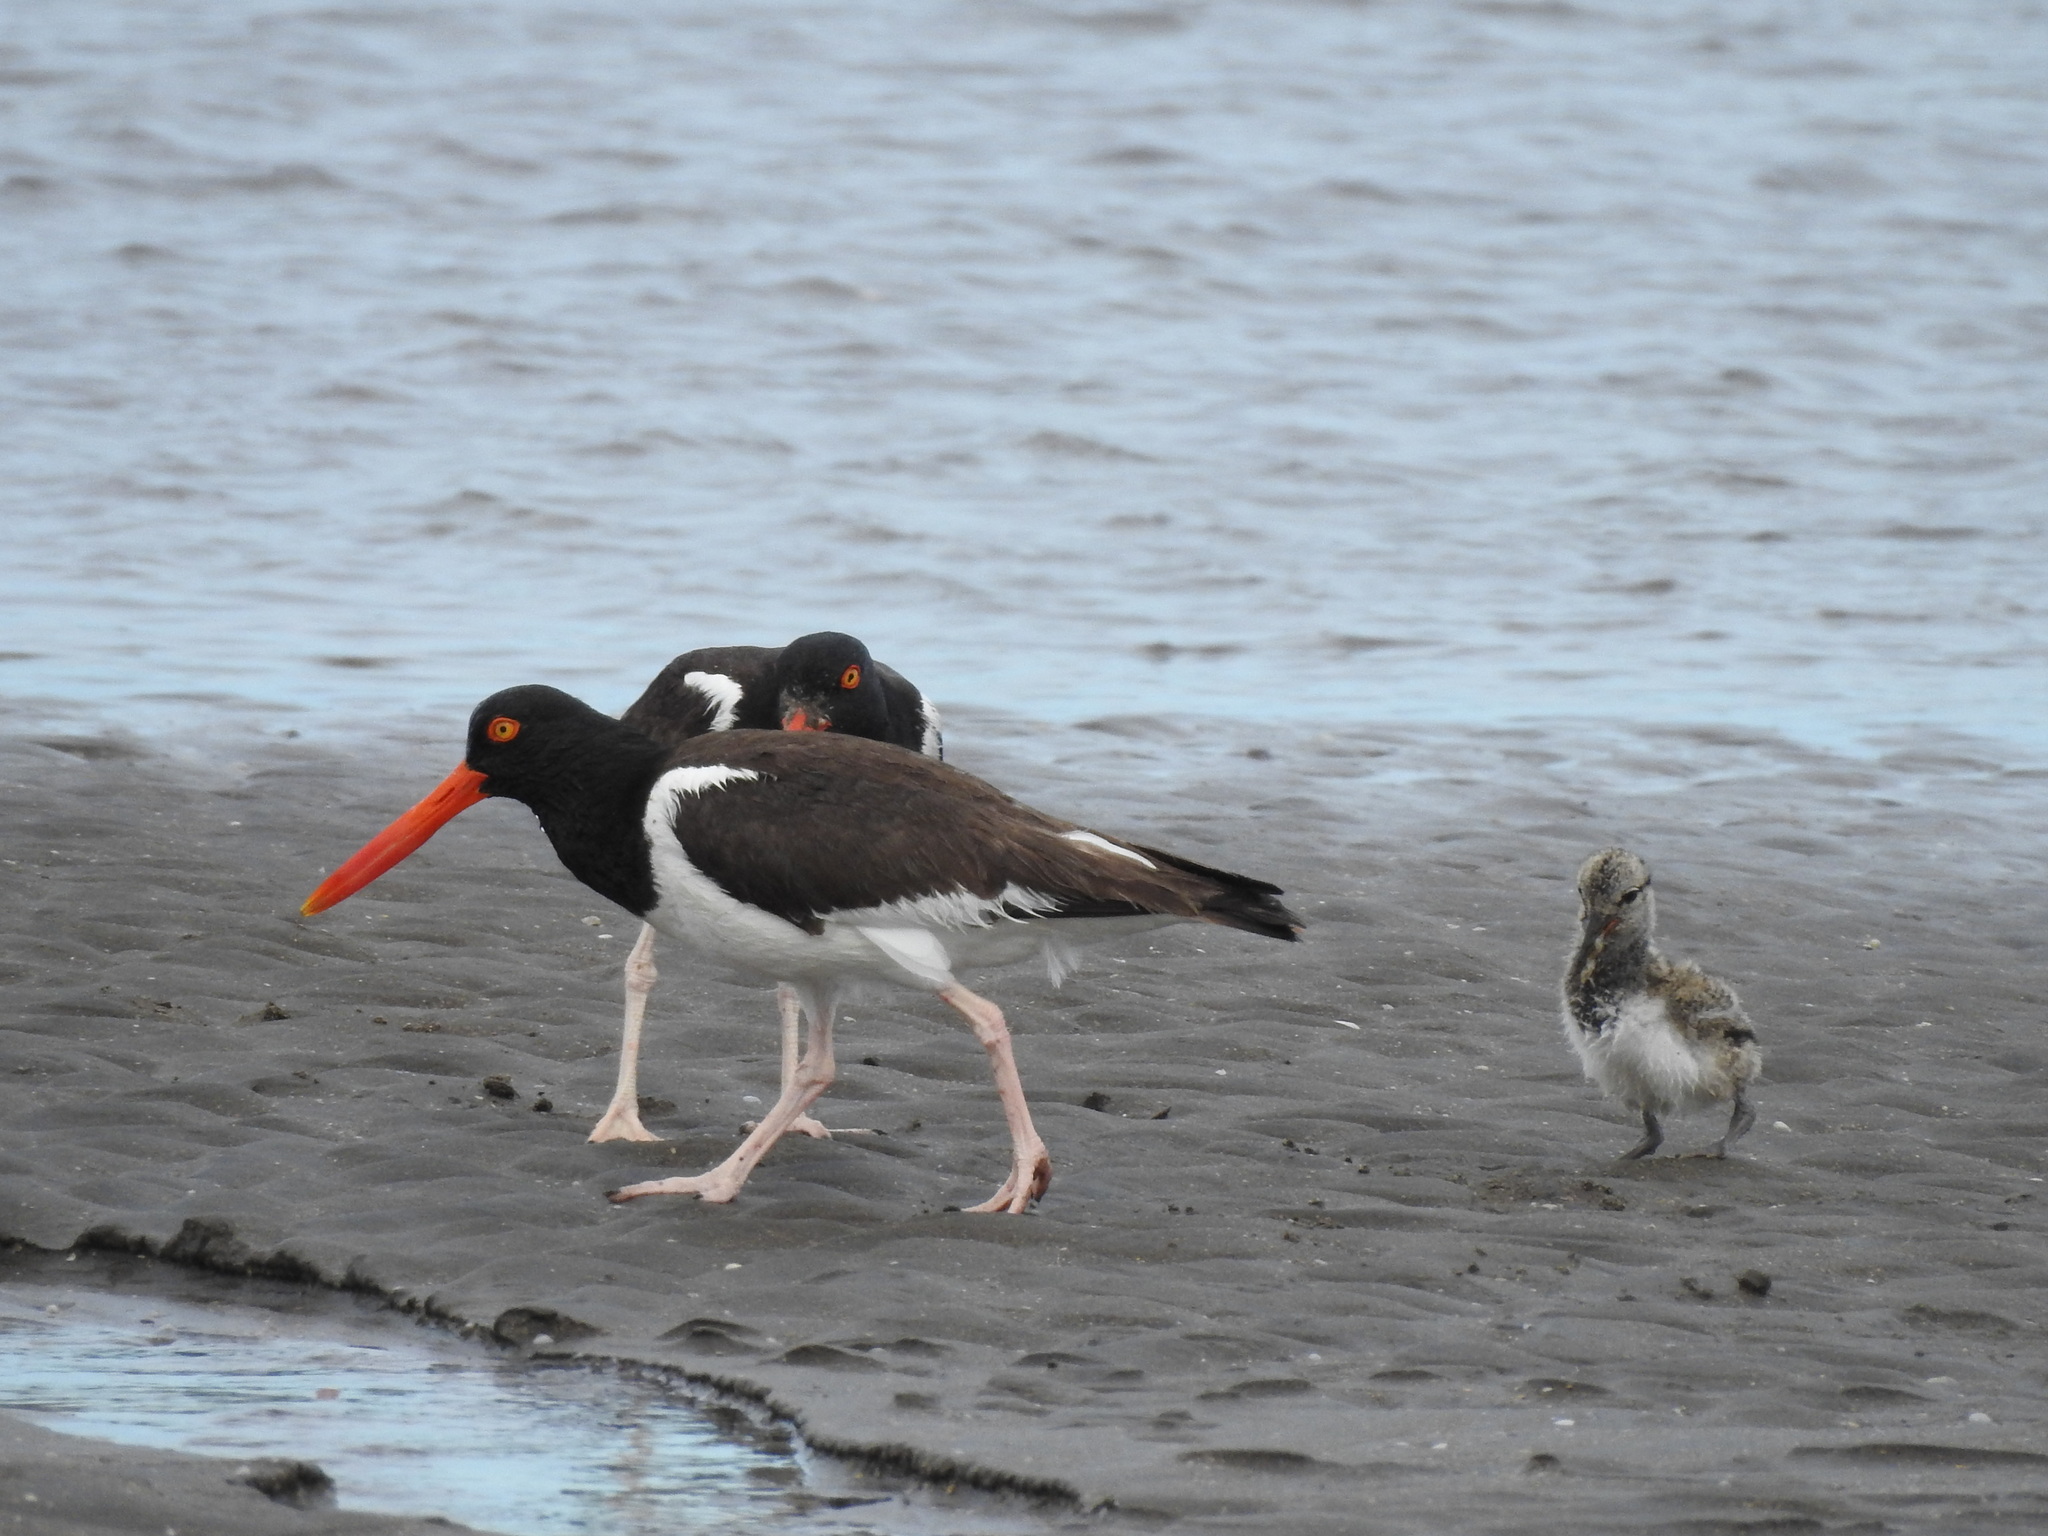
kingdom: Animalia
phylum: Chordata
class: Aves
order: Charadriiformes
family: Haematopodidae
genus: Haematopus
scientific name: Haematopus palliatus
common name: American oystercatcher
